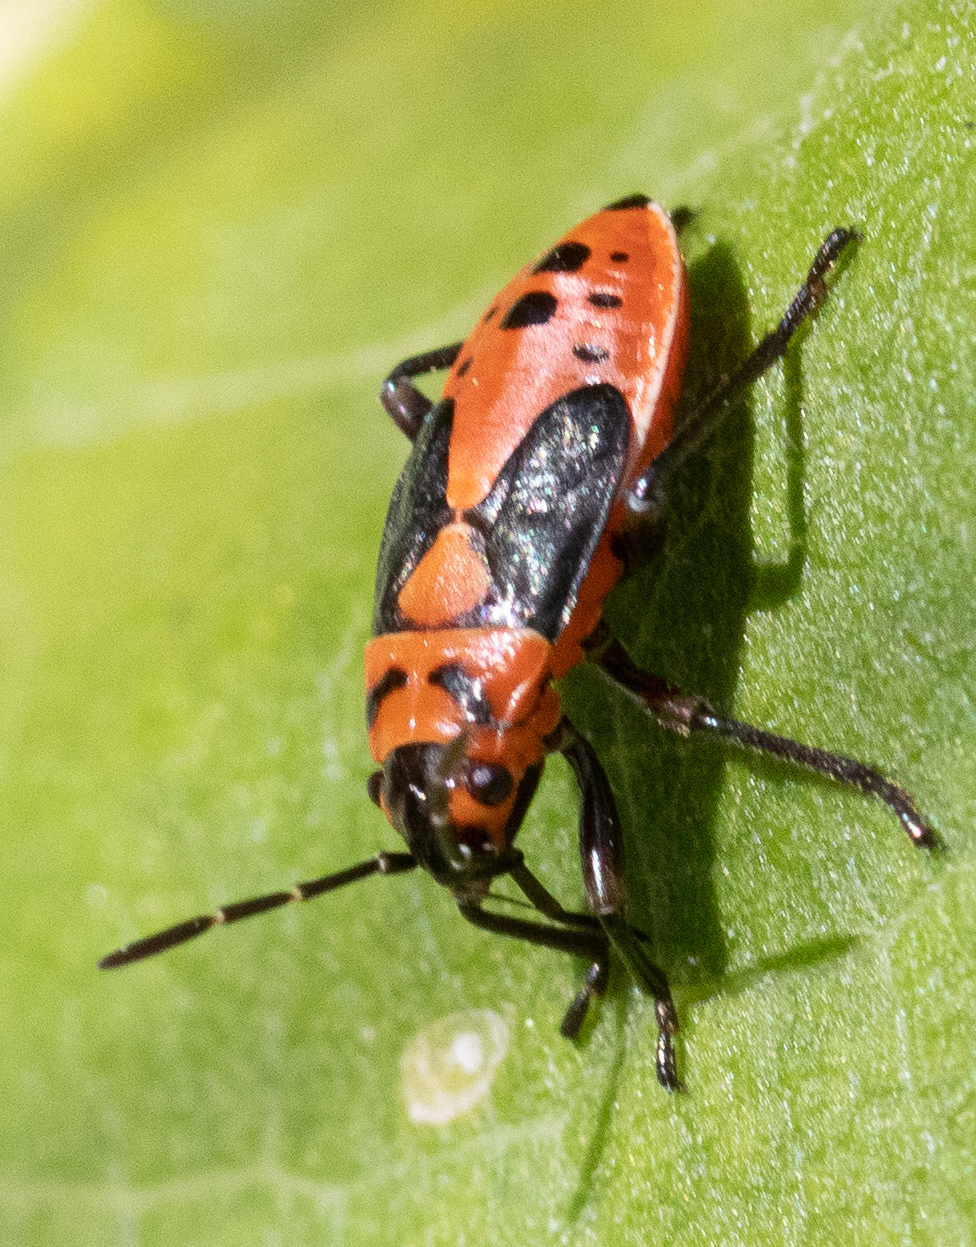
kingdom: Animalia
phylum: Arthropoda
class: Insecta
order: Hemiptera
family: Lygaeidae
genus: Lygaeus
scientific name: Lygaeus kalmii
